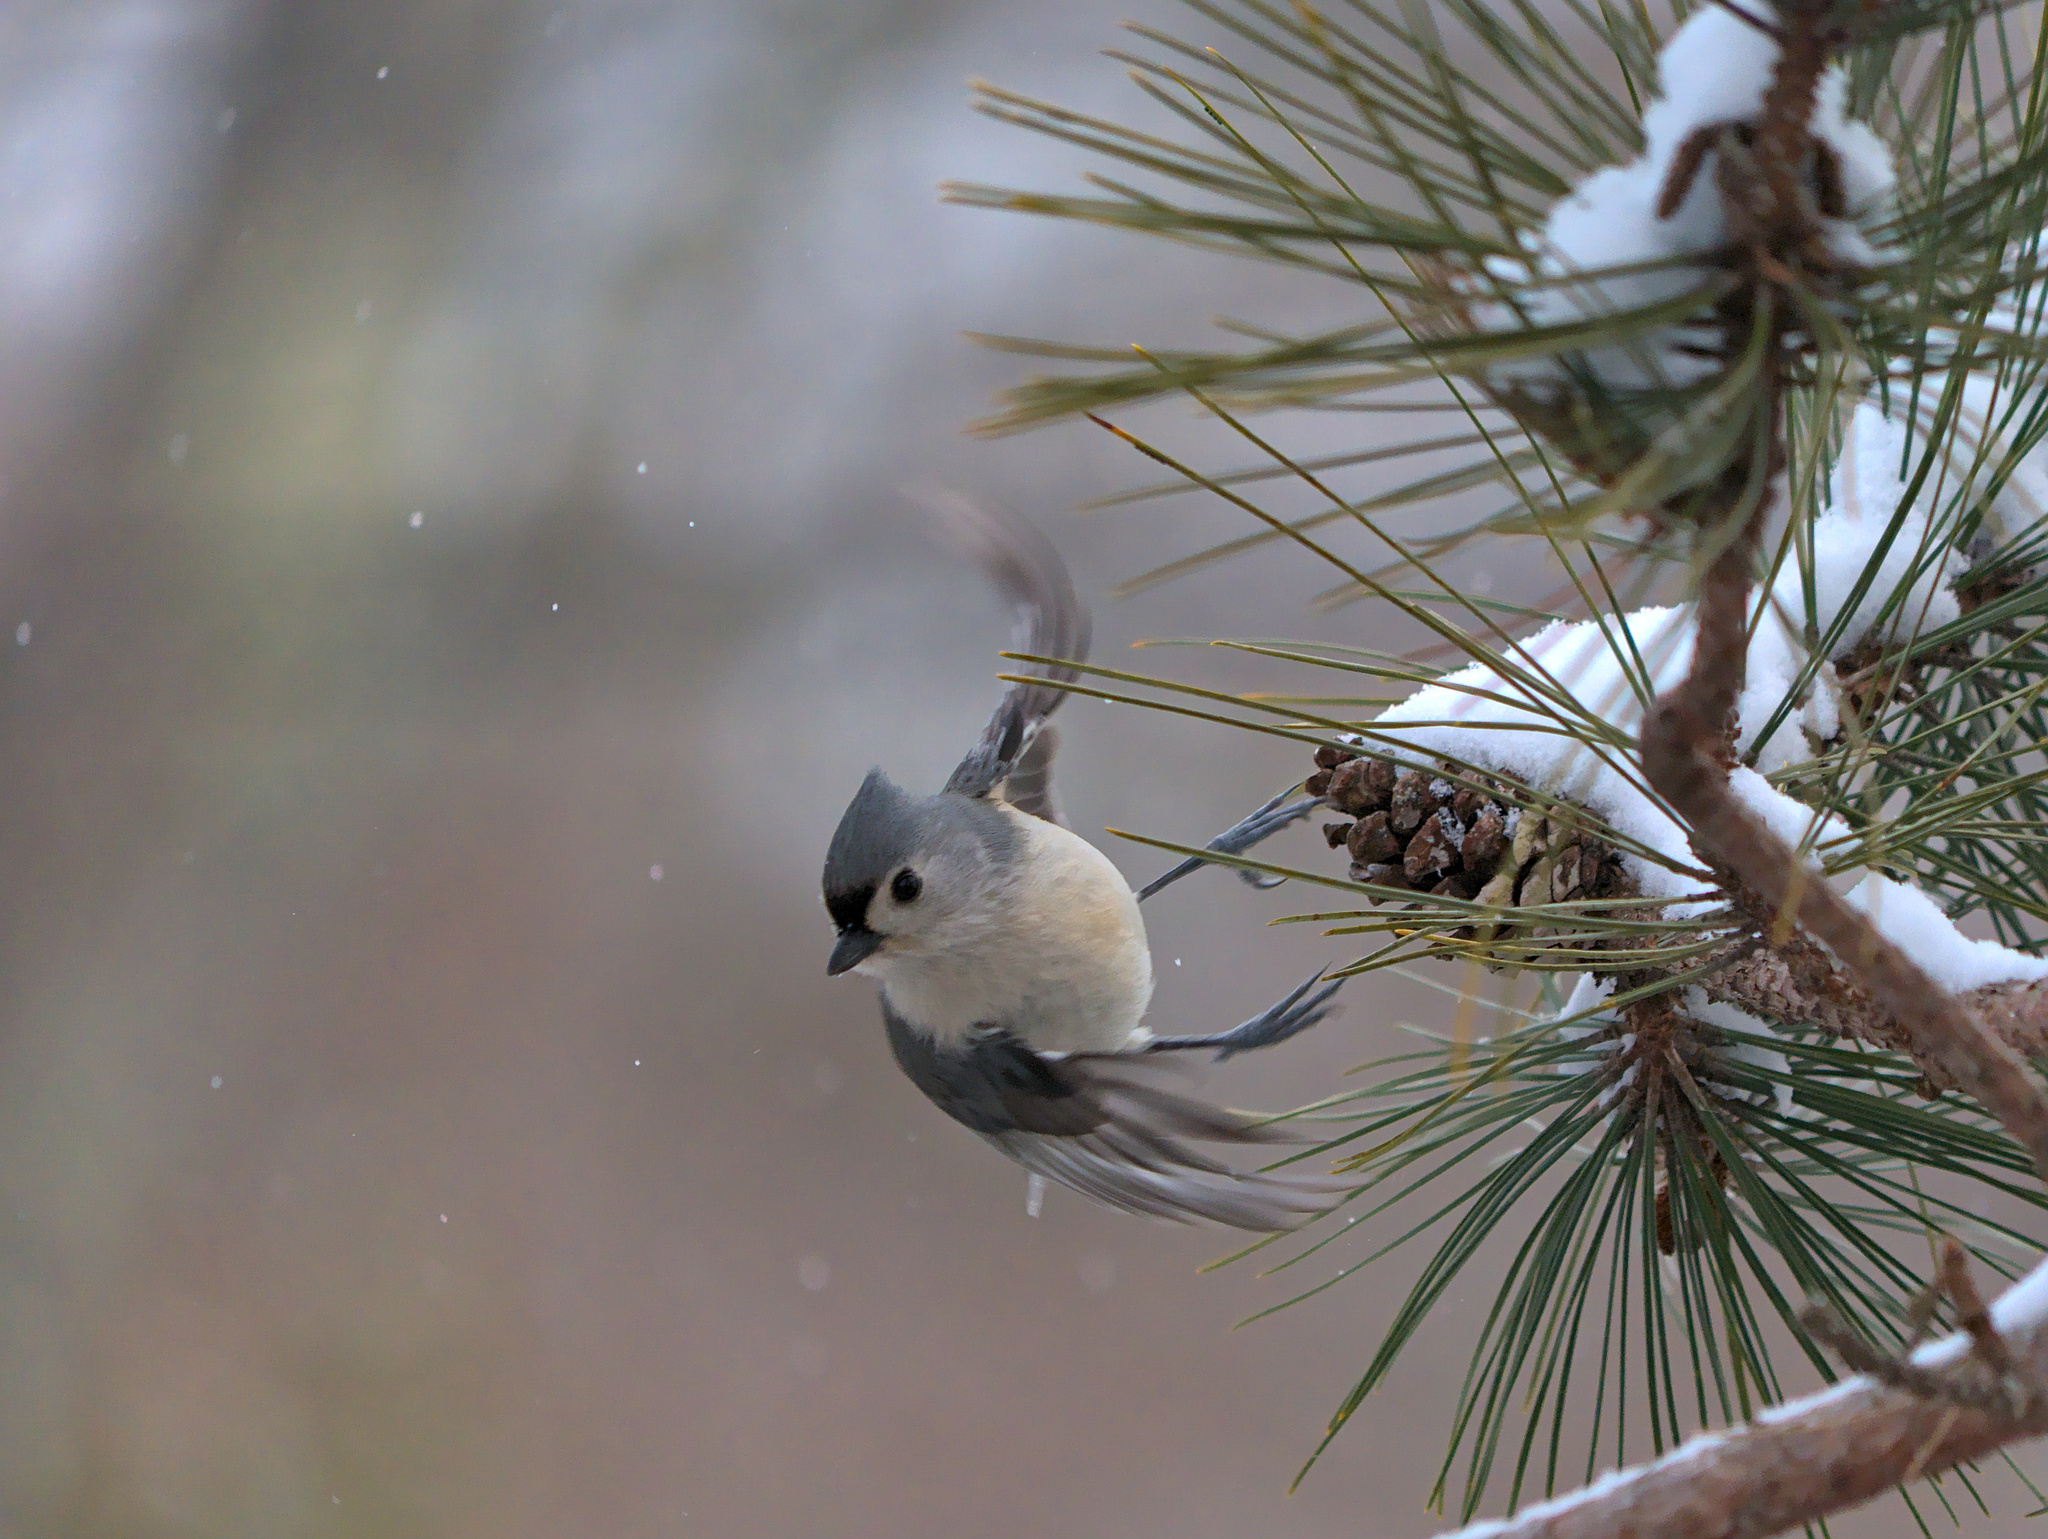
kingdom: Animalia
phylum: Chordata
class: Aves
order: Passeriformes
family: Paridae
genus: Baeolophus
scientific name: Baeolophus bicolor
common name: Tufted titmouse
